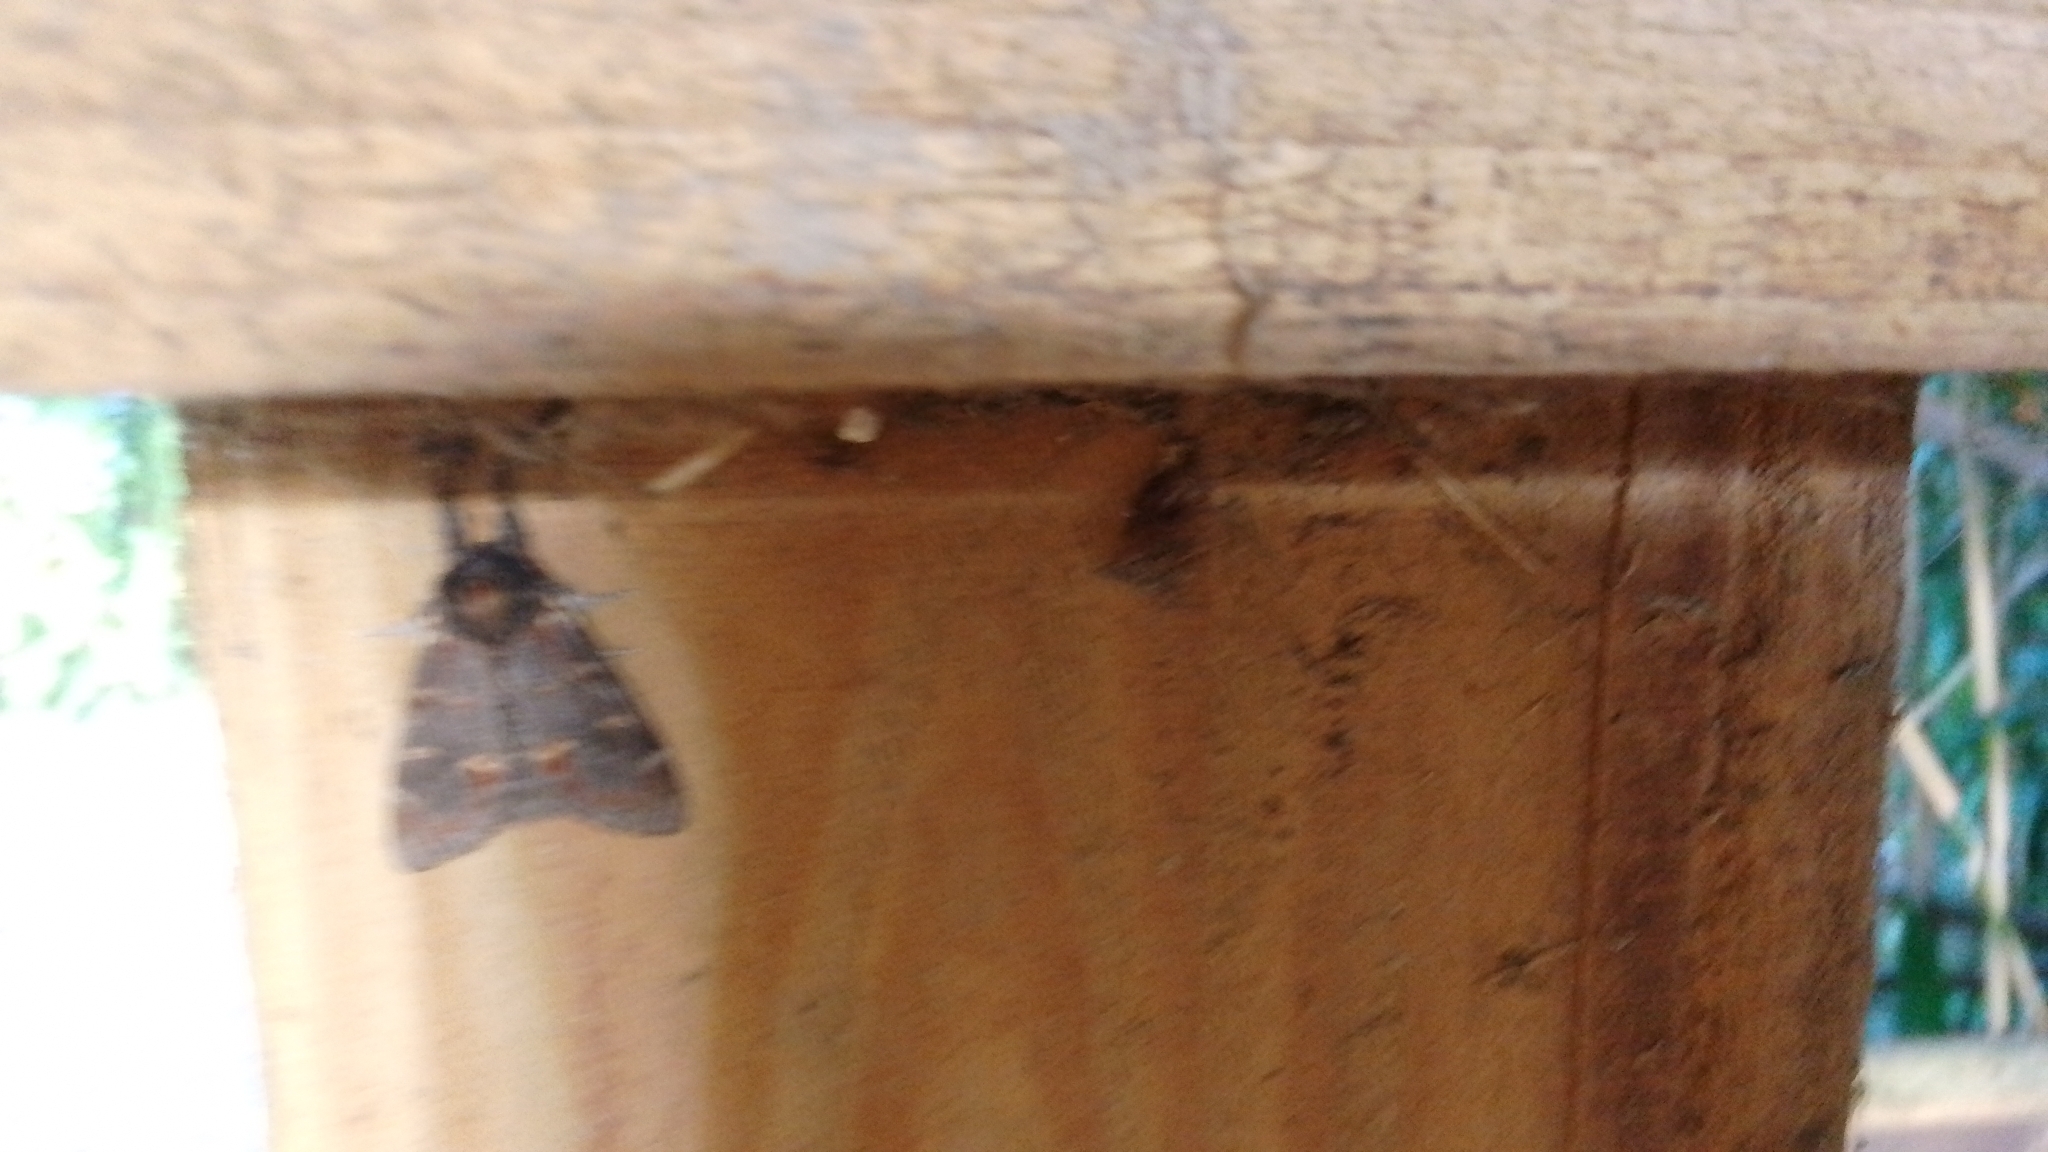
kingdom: Animalia
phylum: Arthropoda
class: Insecta
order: Lepidoptera
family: Notodontidae
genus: Notodonta
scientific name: Notodonta dromedarius
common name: Iron prominent
